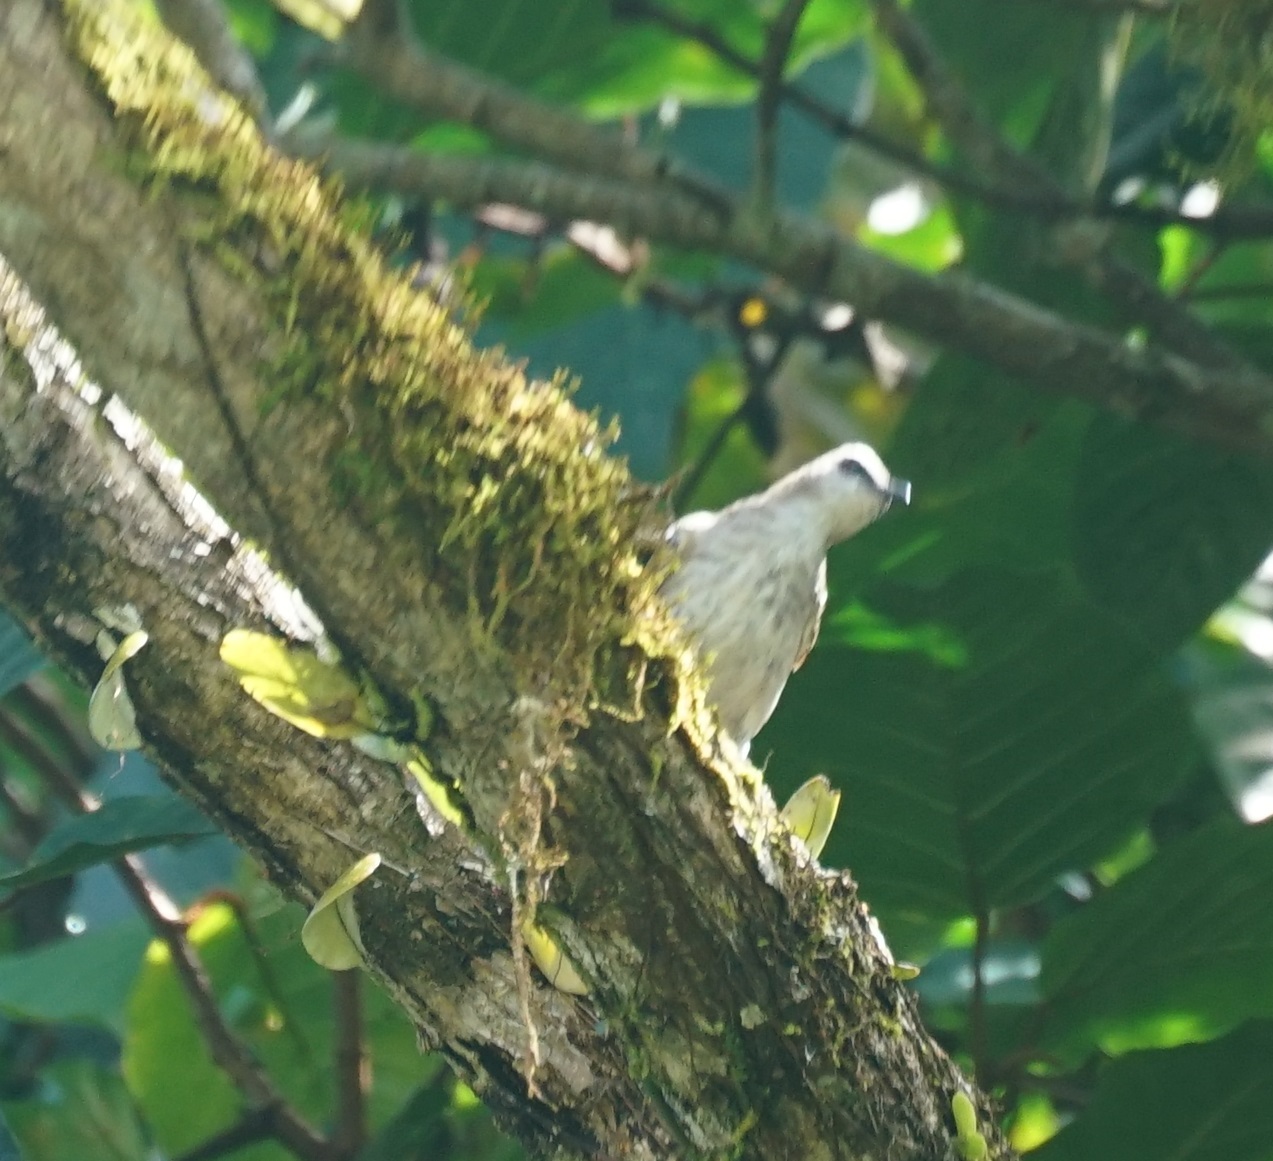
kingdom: Animalia
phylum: Chordata
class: Aves
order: Passeriformes
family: Pycnonotidae
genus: Pycnonotus
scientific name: Pycnonotus goiavier
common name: Yellow-vented bulbul
